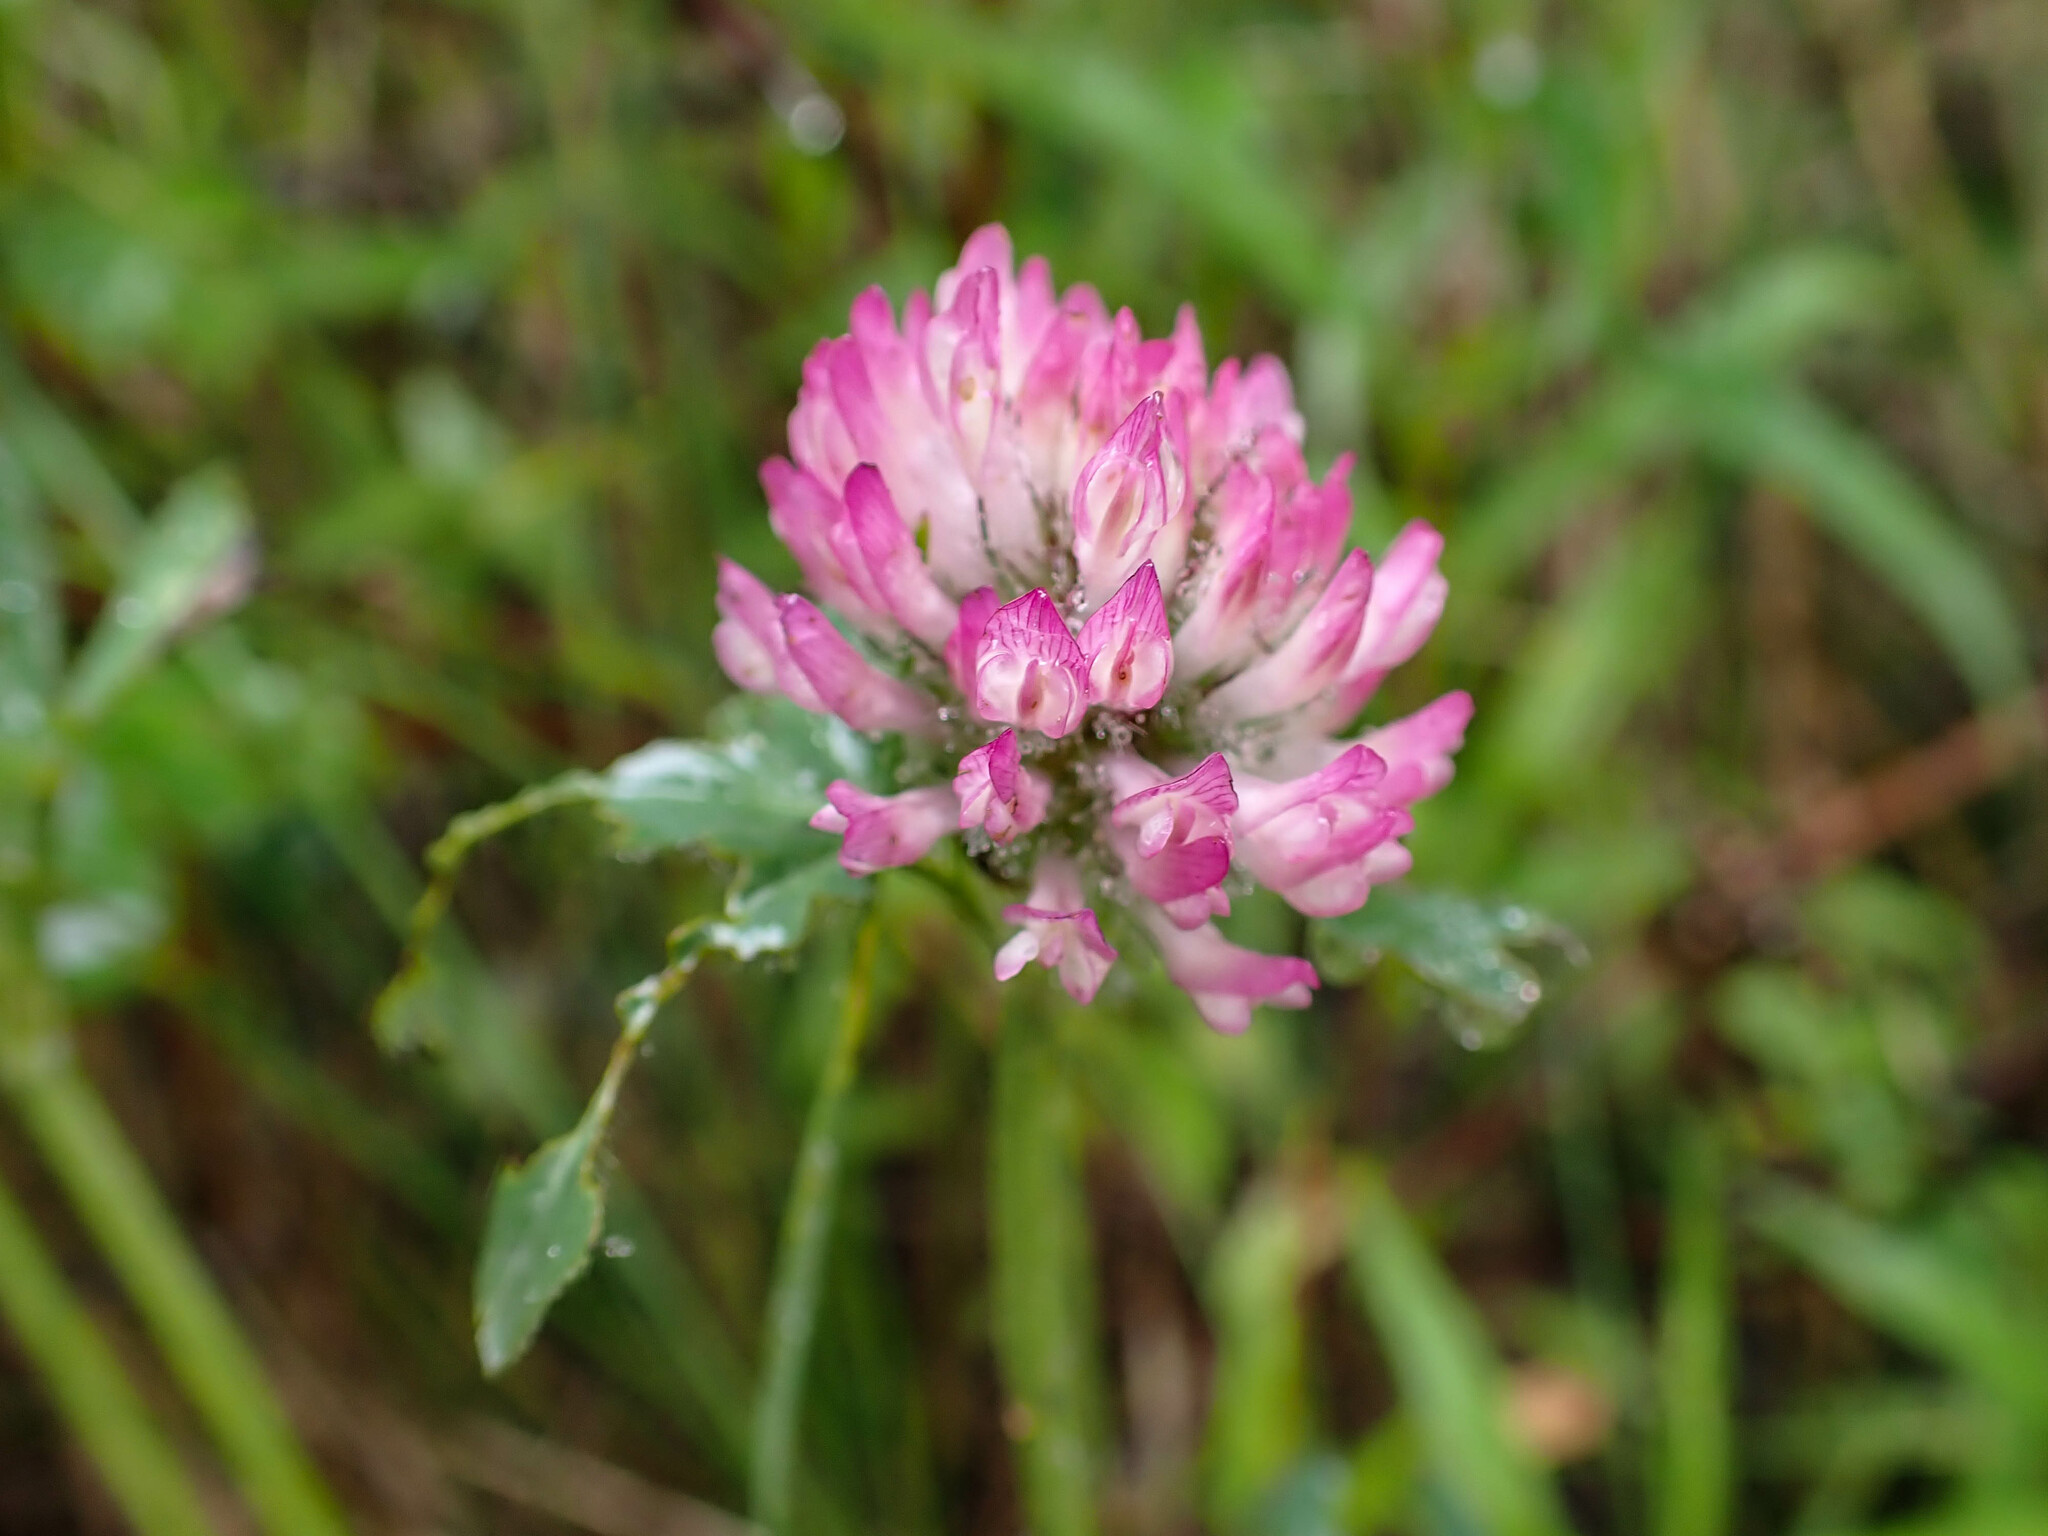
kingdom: Plantae
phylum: Tracheophyta
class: Magnoliopsida
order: Fabales
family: Fabaceae
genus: Trifolium
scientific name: Trifolium pratense
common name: Red clover
